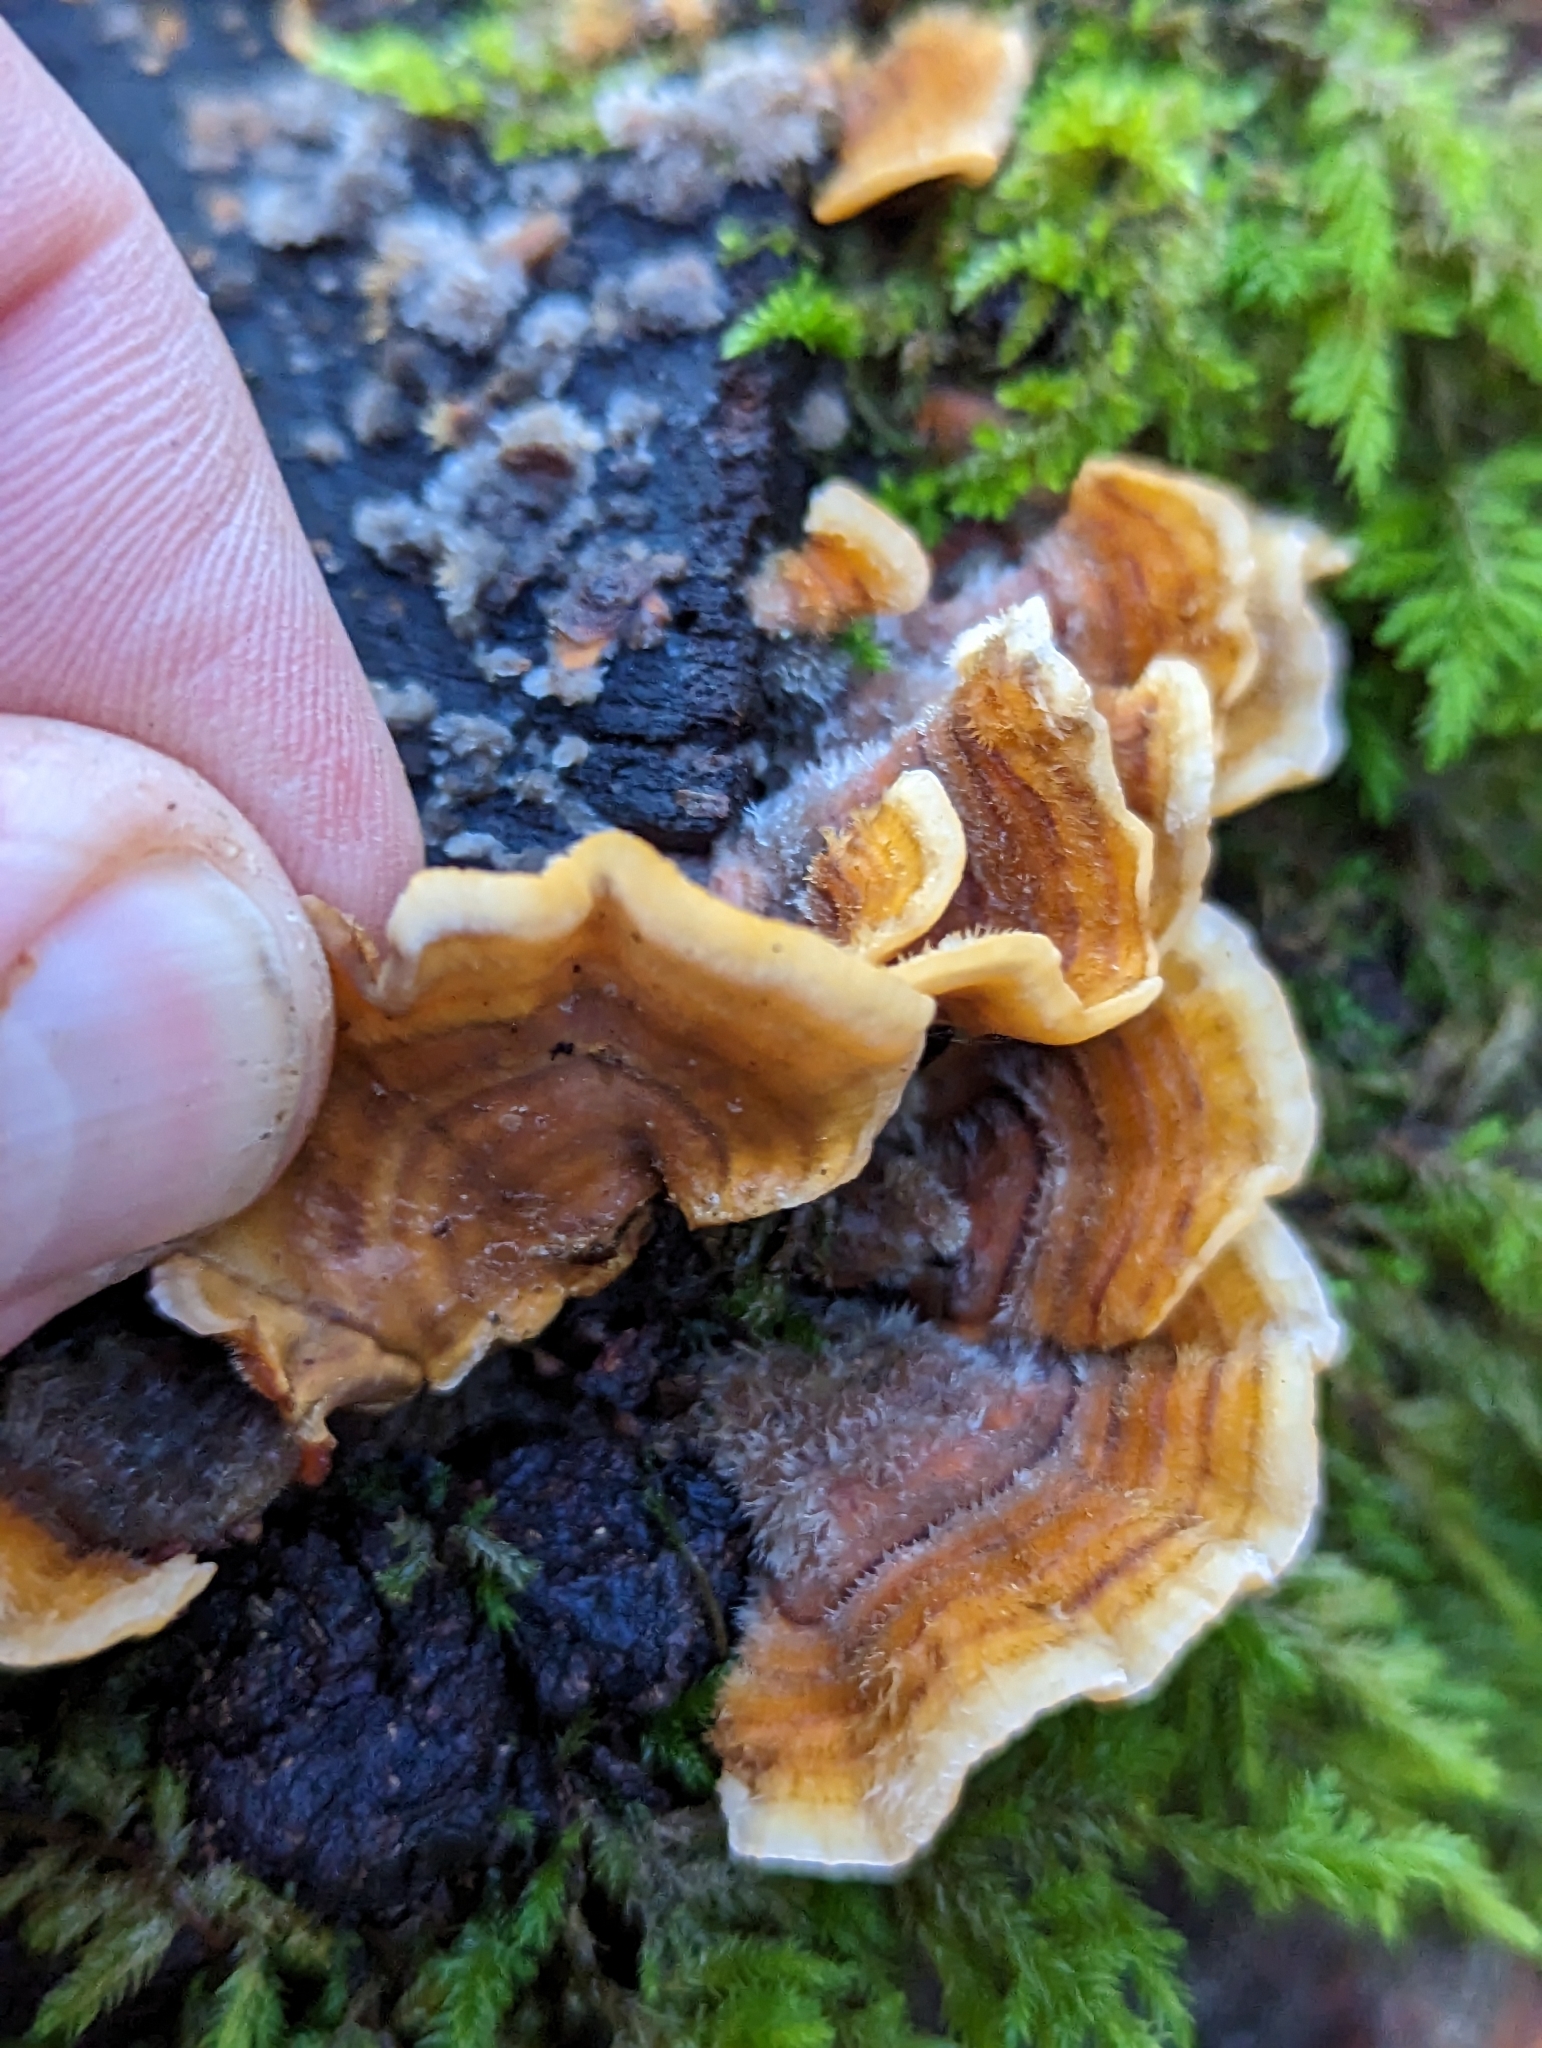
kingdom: Fungi
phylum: Basidiomycota
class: Agaricomycetes
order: Russulales
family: Stereaceae
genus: Stereum
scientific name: Stereum hirsutum
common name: Hairy curtain crust
